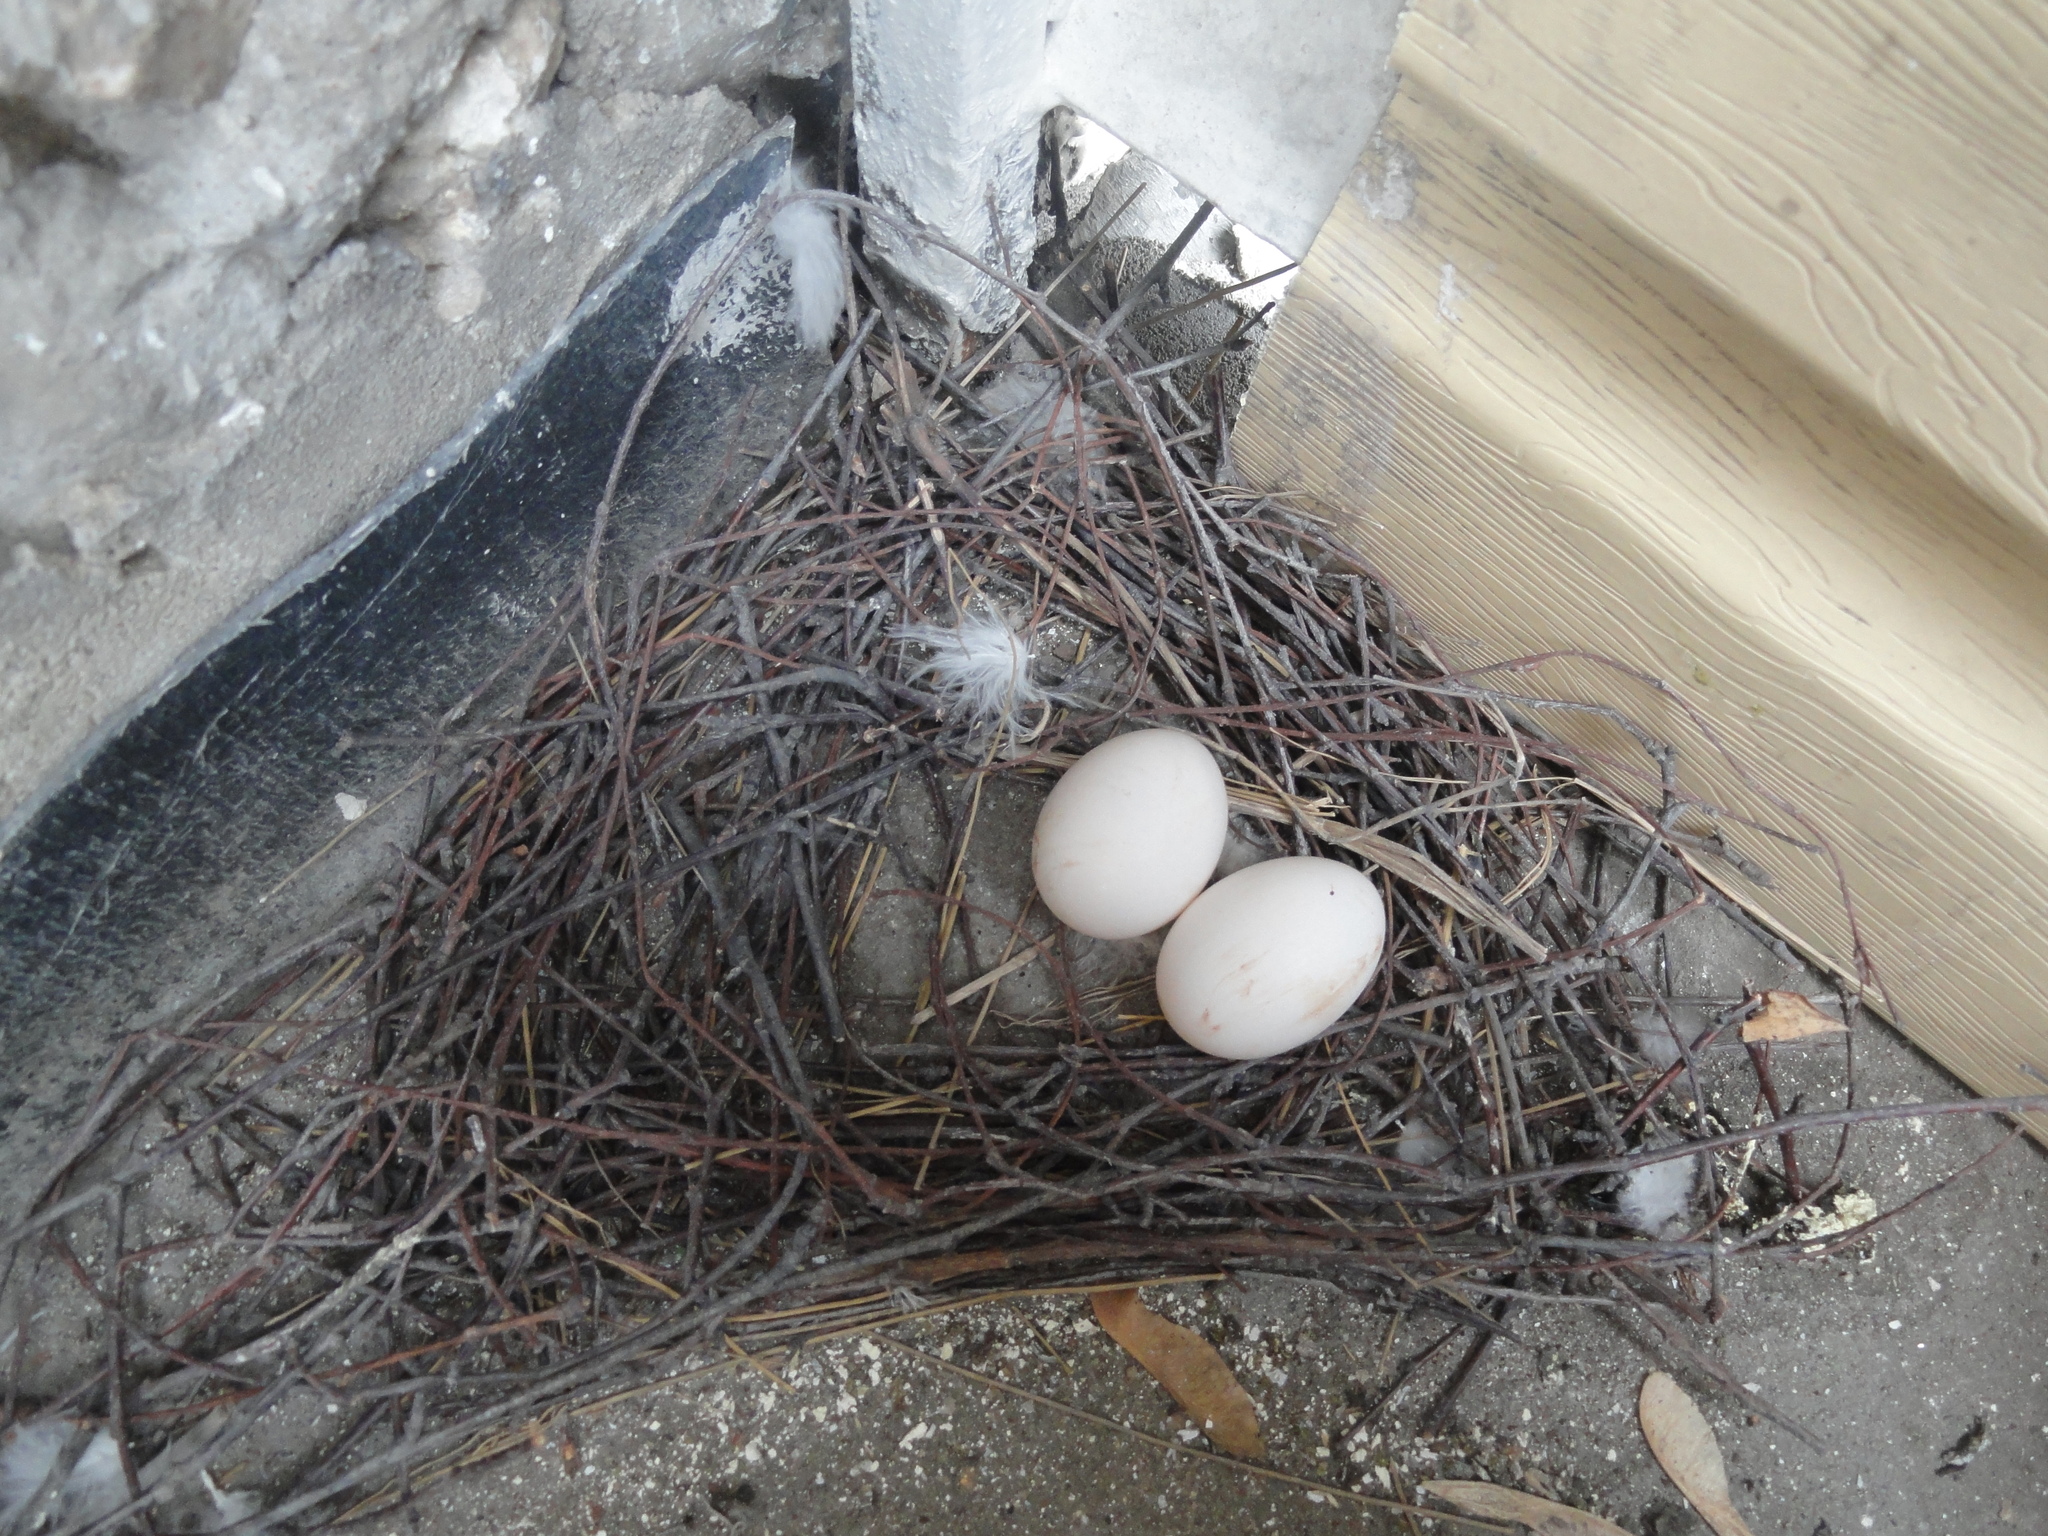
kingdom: Animalia
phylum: Chordata
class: Aves
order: Columbiformes
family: Columbidae
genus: Columba
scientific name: Columba livia
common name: Rock pigeon
